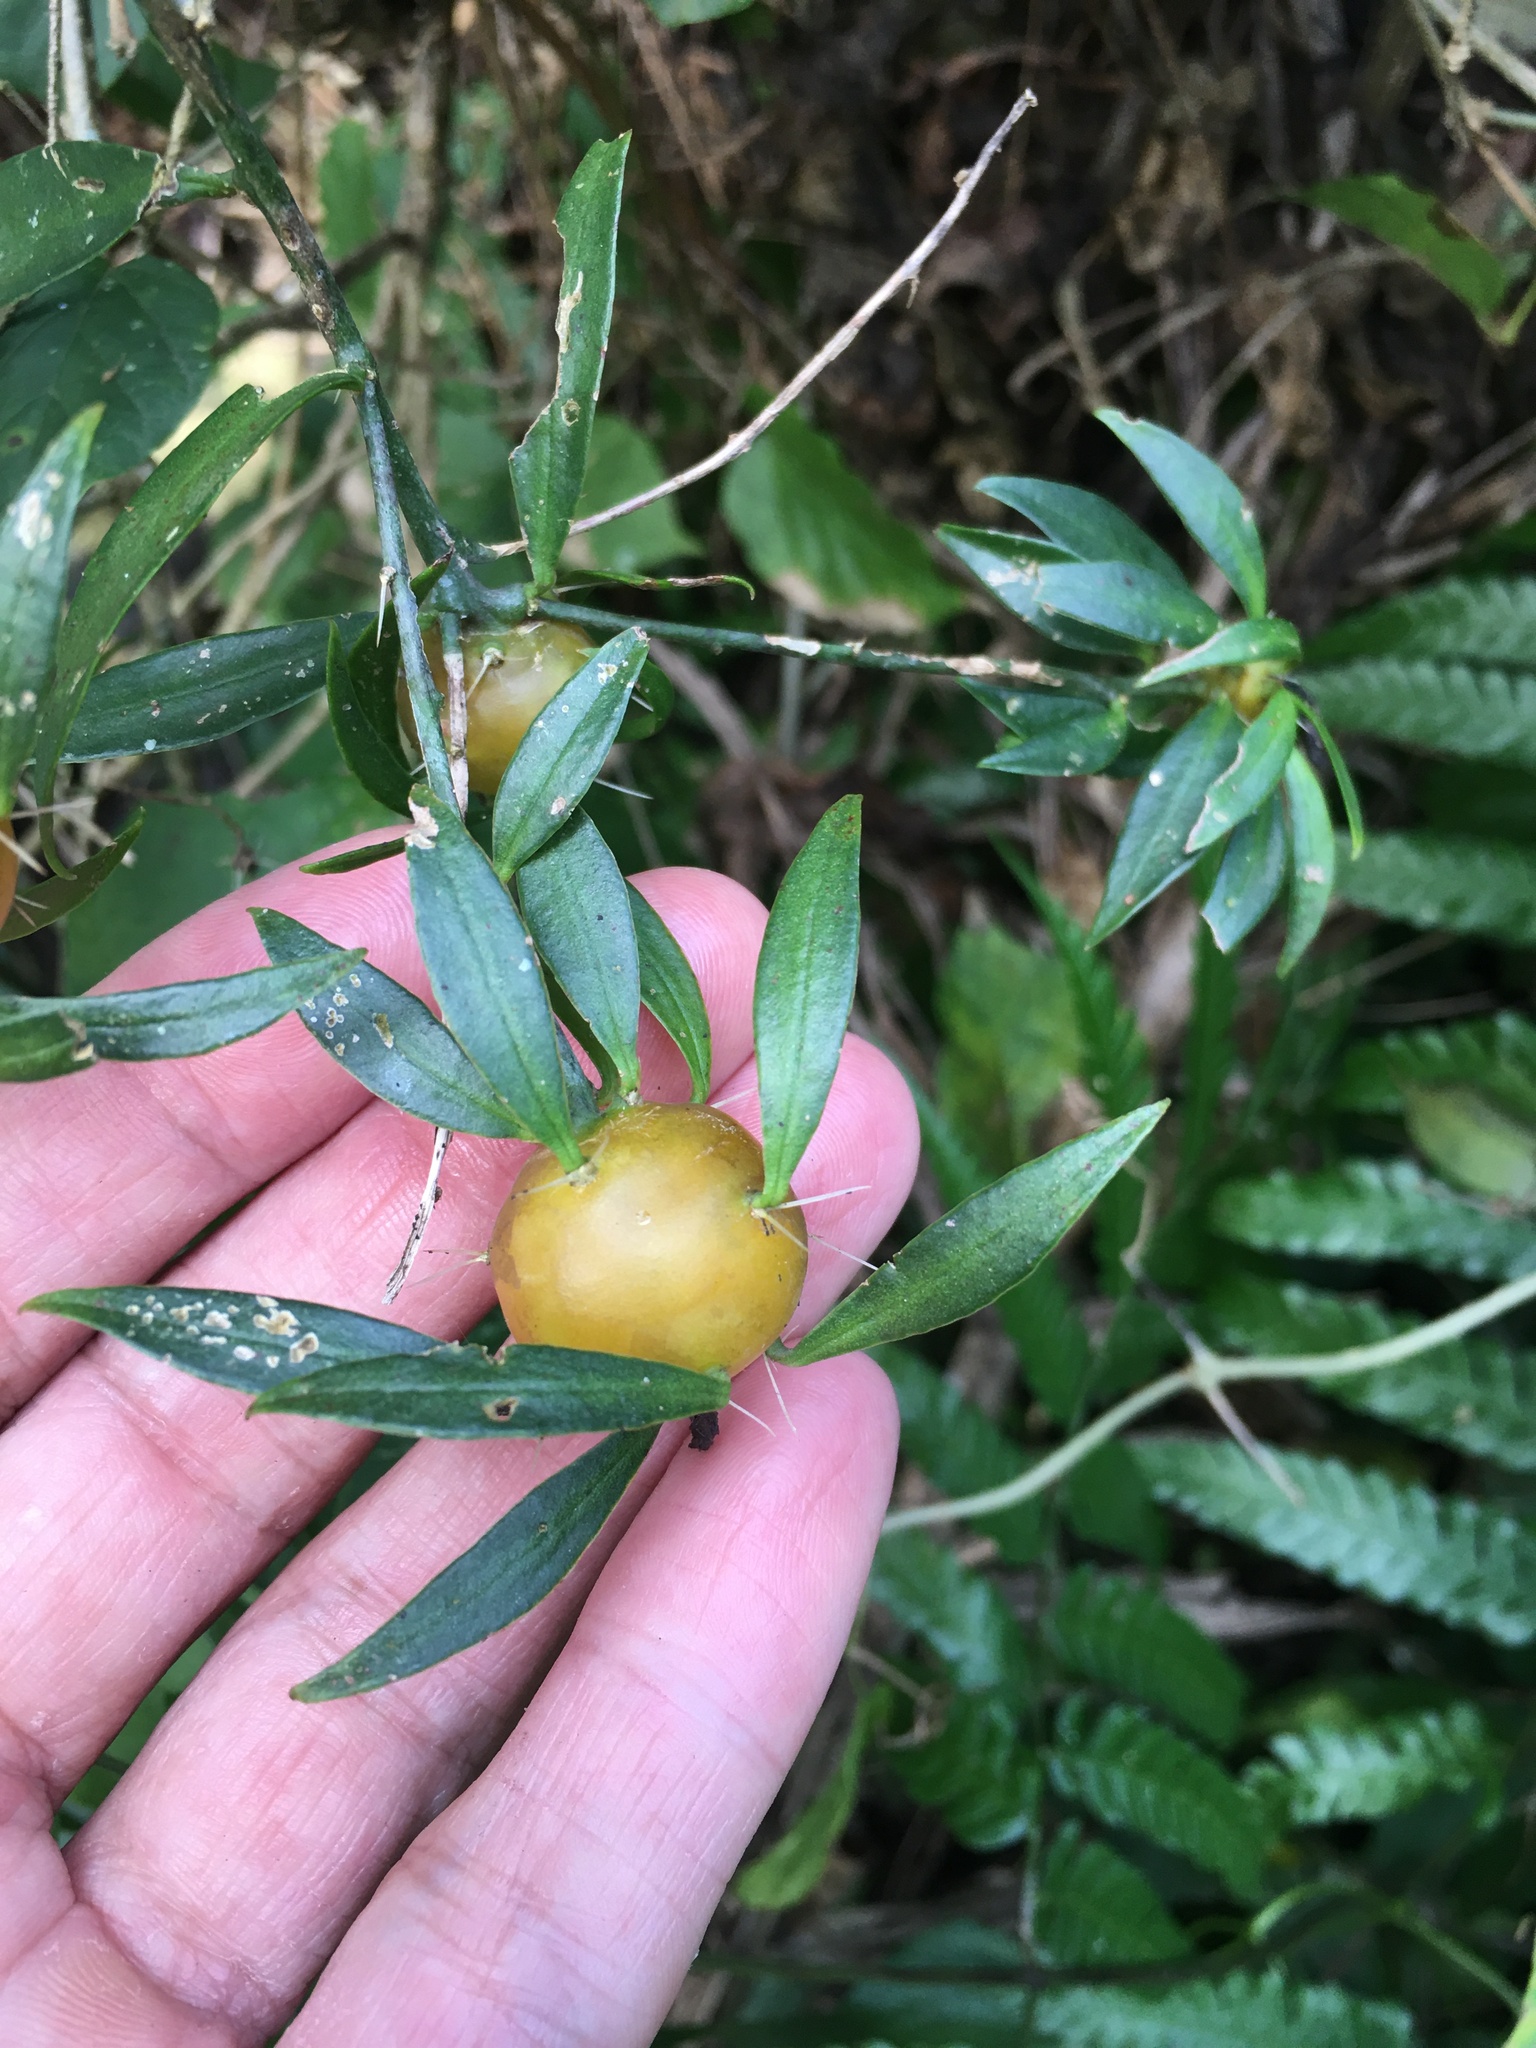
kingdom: Plantae
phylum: Tracheophyta
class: Magnoliopsida
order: Caryophyllales
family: Cactaceae
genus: Pereskia
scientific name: Pereskia aculeata
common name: Barbados gooseberry
